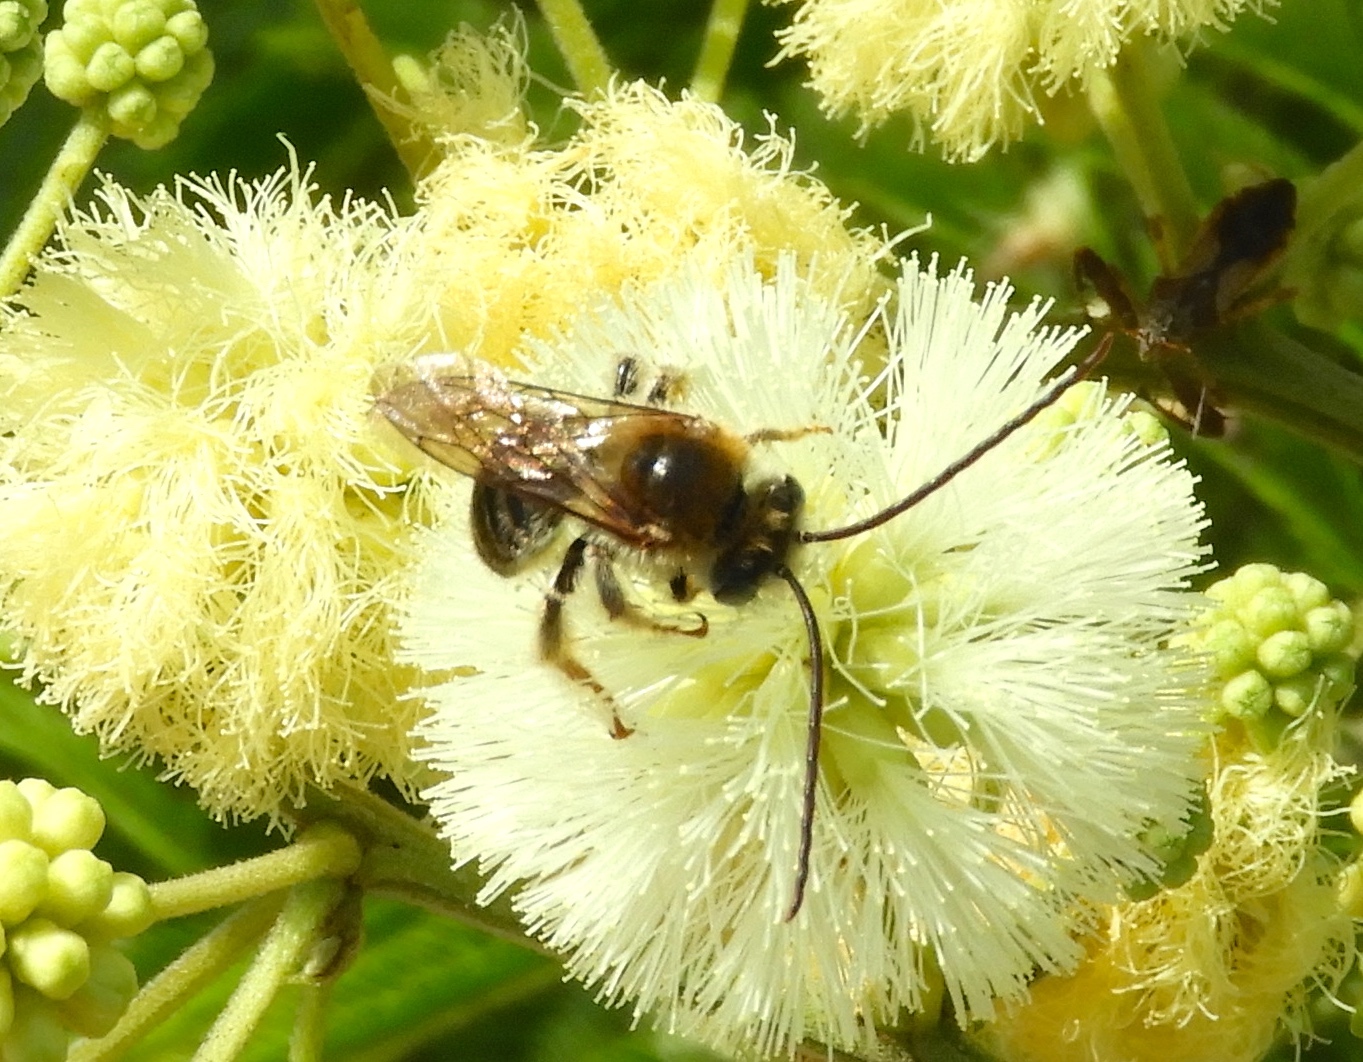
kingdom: Animalia
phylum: Arthropoda
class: Insecta
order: Hymenoptera
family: Apidae
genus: Melissodes
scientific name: Melissodes
